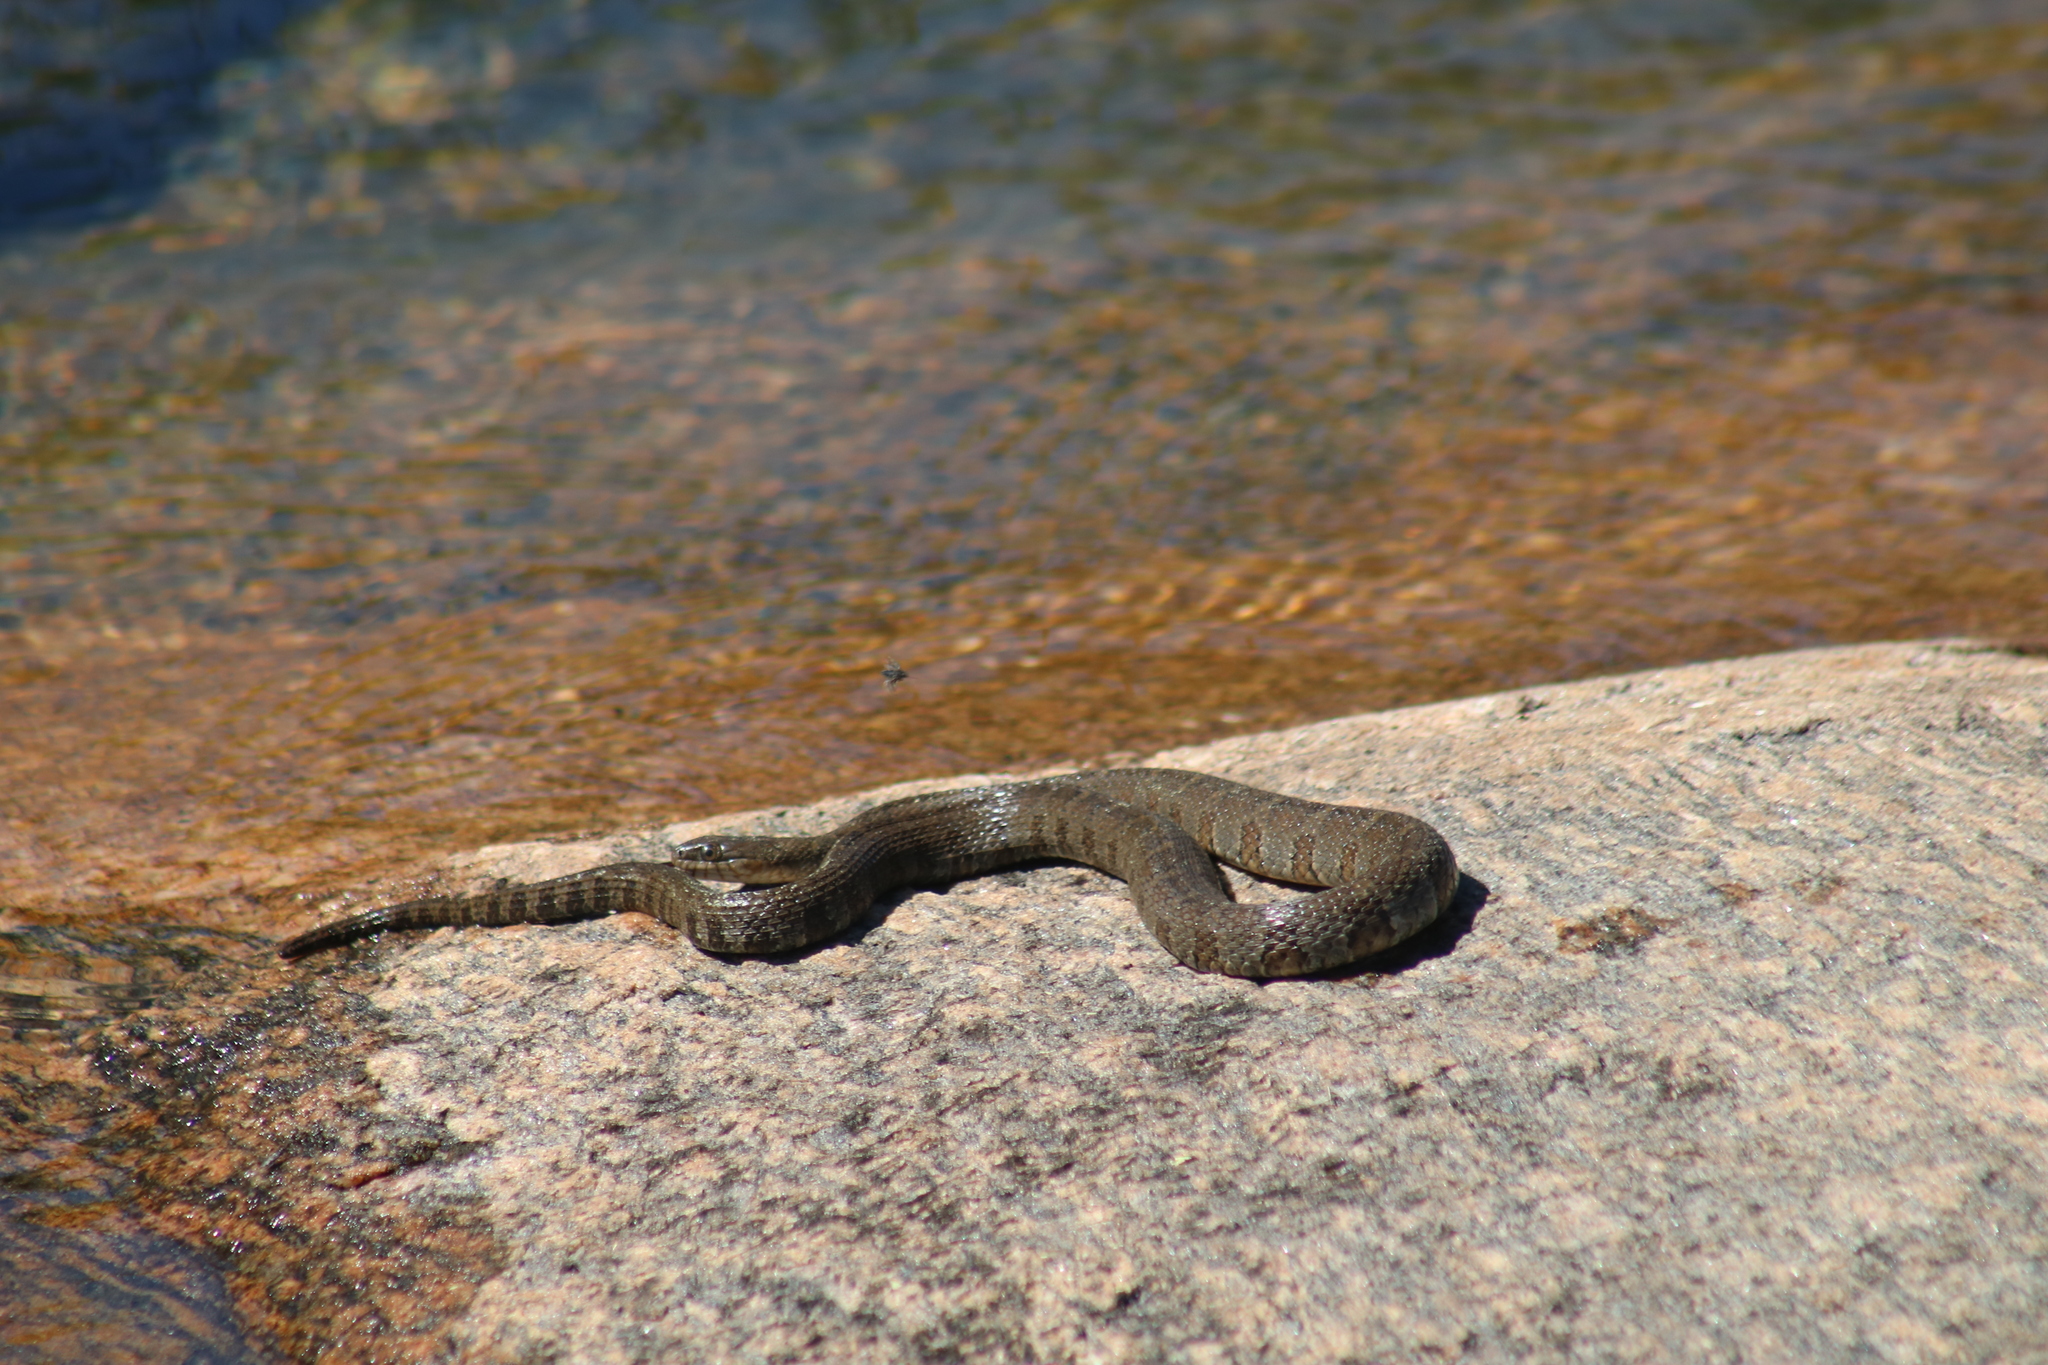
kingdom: Animalia
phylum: Chordata
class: Squamata
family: Colubridae
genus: Nerodia
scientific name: Nerodia sipedon
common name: Northern water snake
